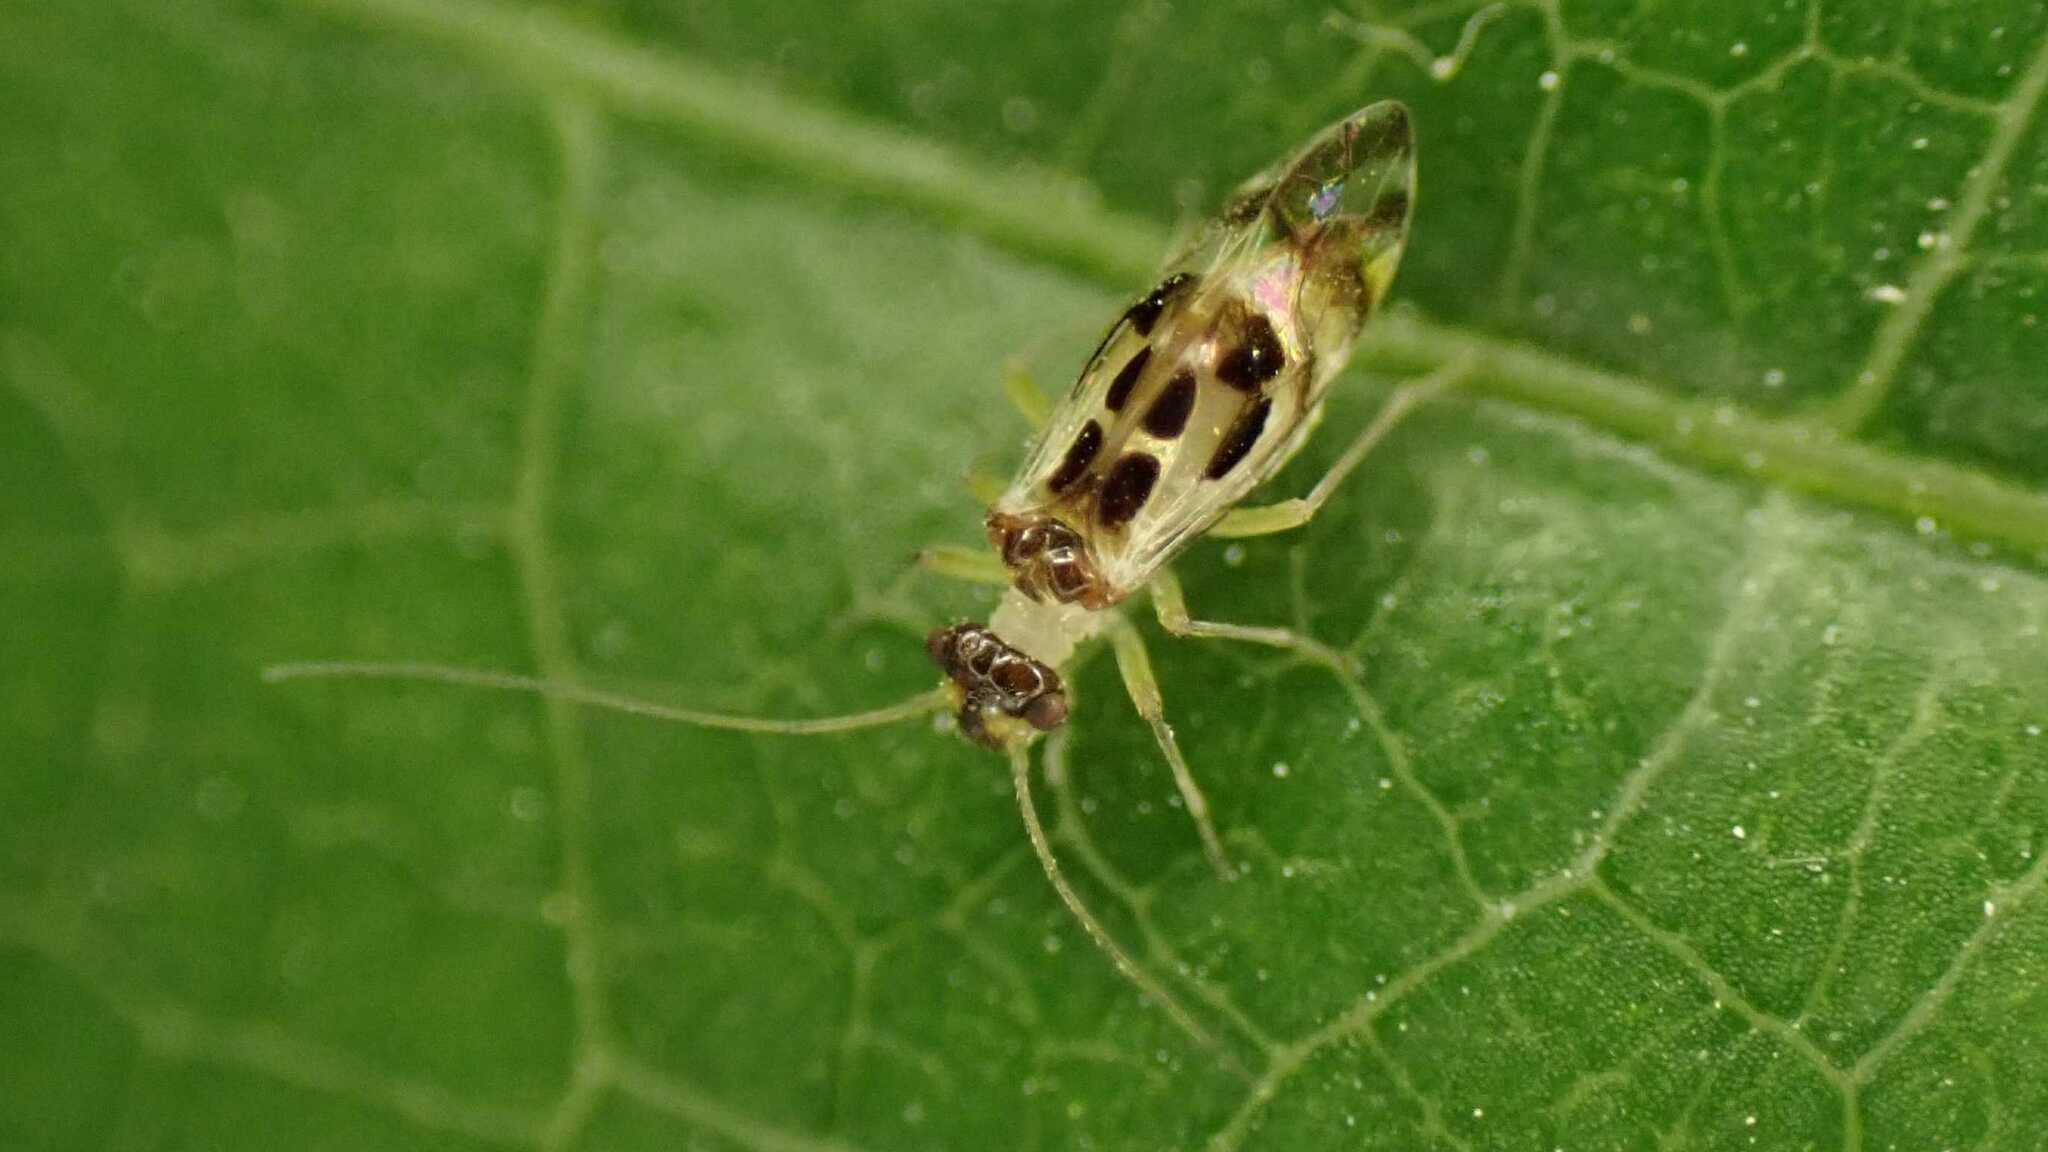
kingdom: Animalia
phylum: Arthropoda
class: Insecta
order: Psocodea
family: Stenopsocidae
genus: Graphopsocus
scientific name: Graphopsocus cruciatus
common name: Lizard bark louse
